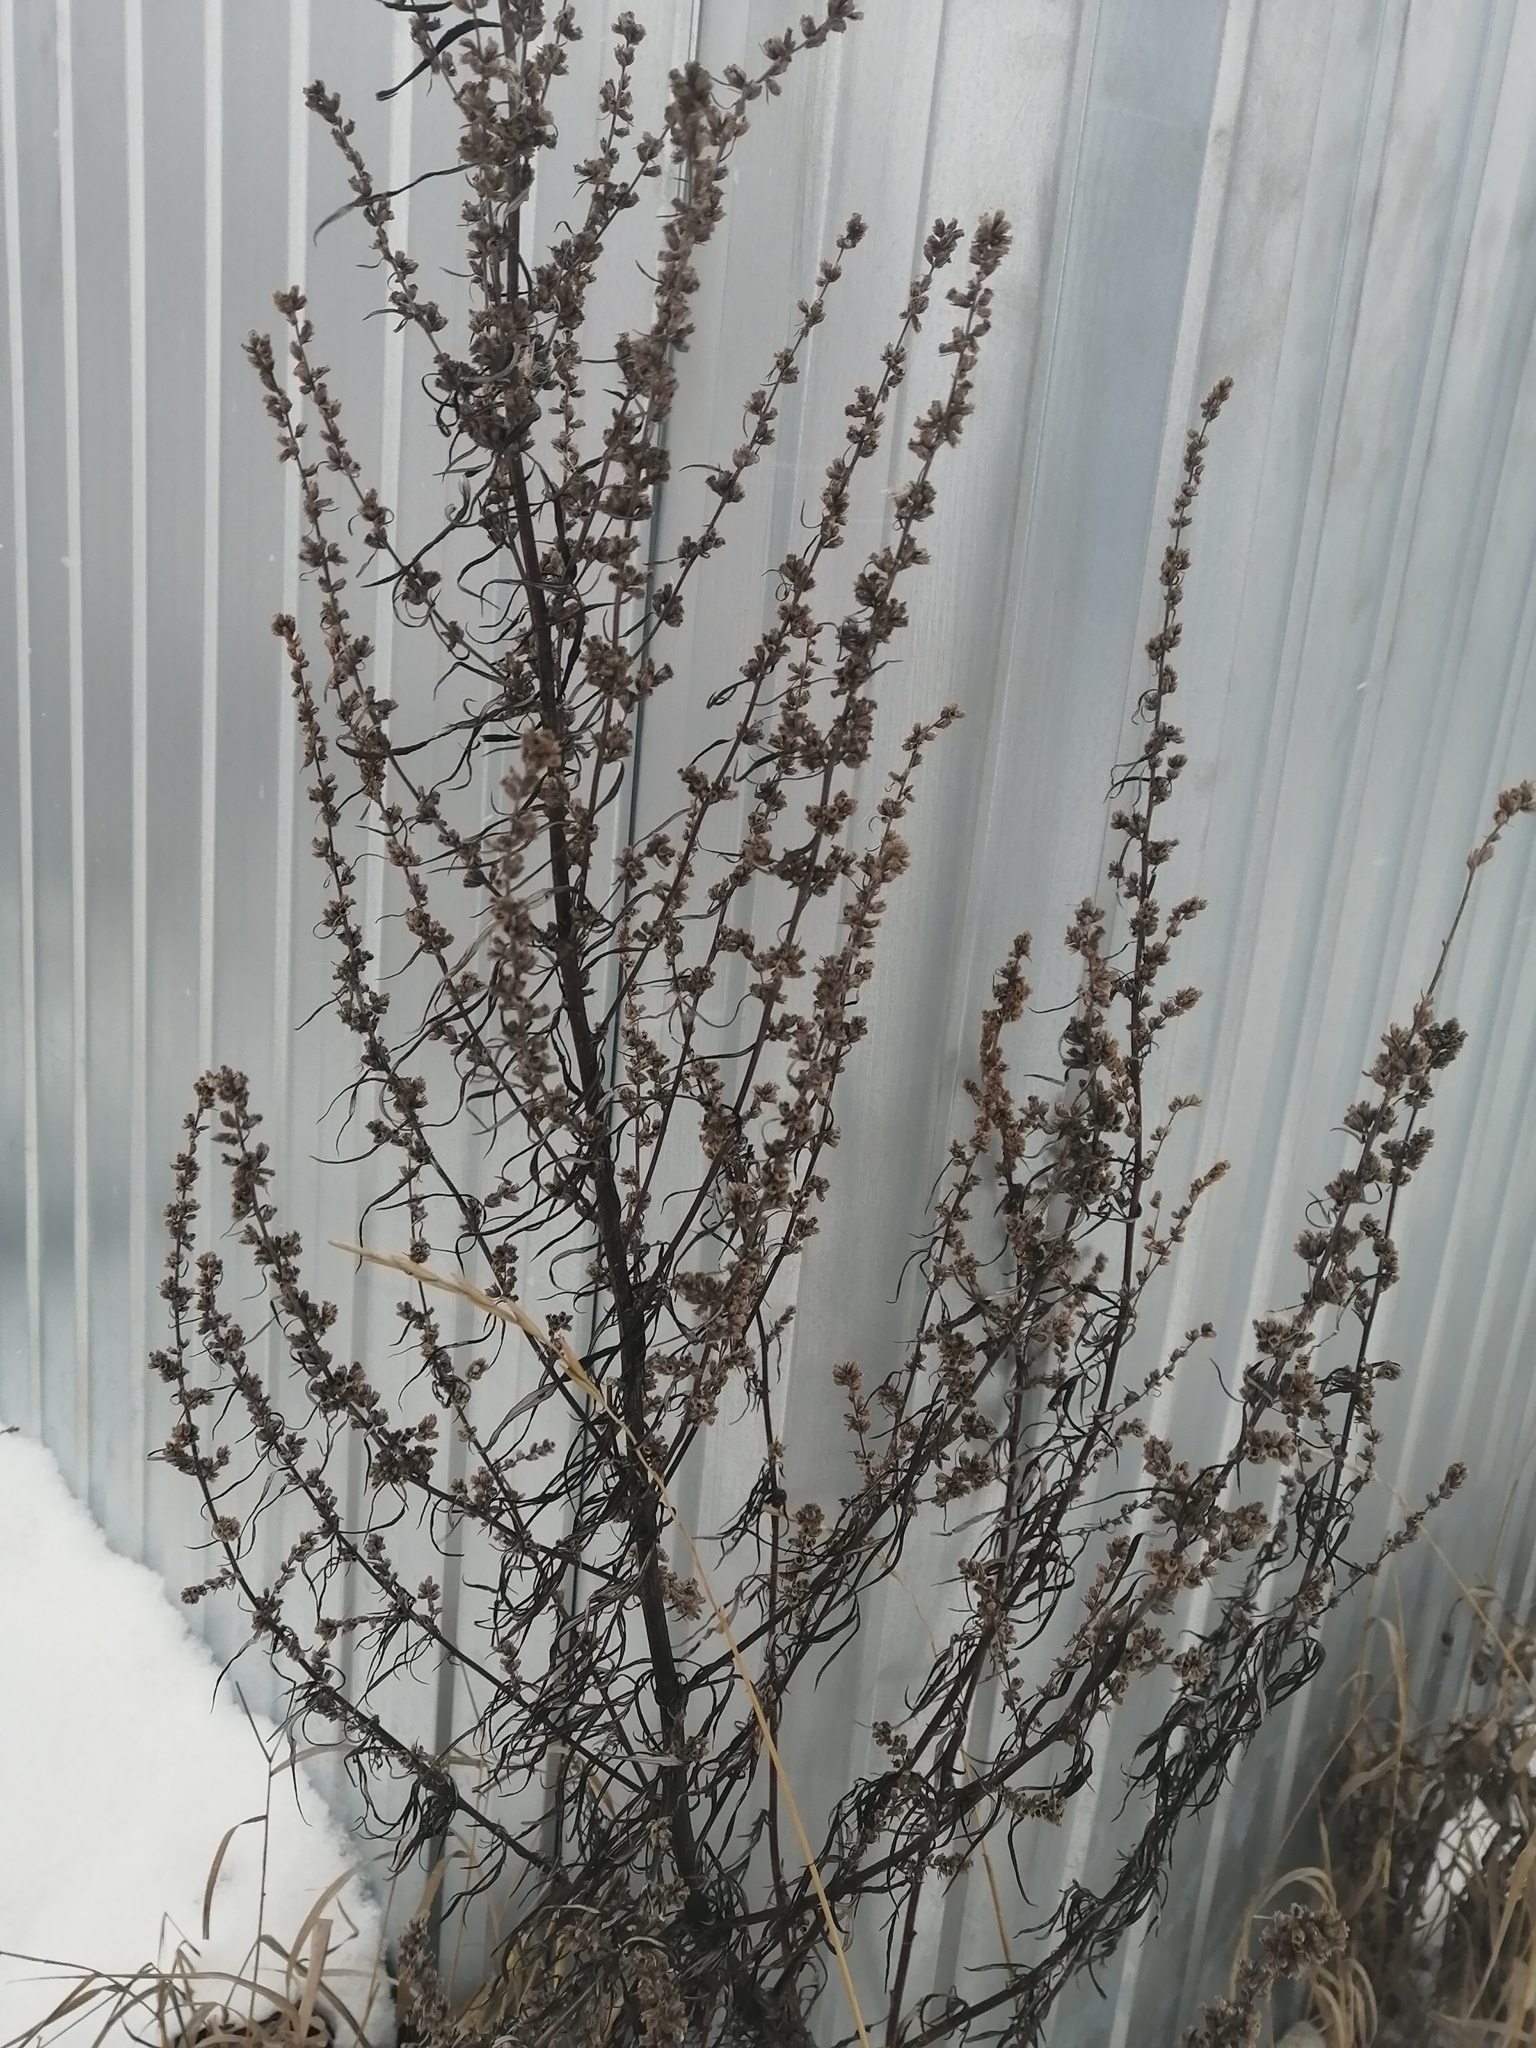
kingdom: Plantae
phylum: Tracheophyta
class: Magnoliopsida
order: Asterales
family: Asteraceae
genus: Artemisia
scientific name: Artemisia vulgaris
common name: Mugwort
